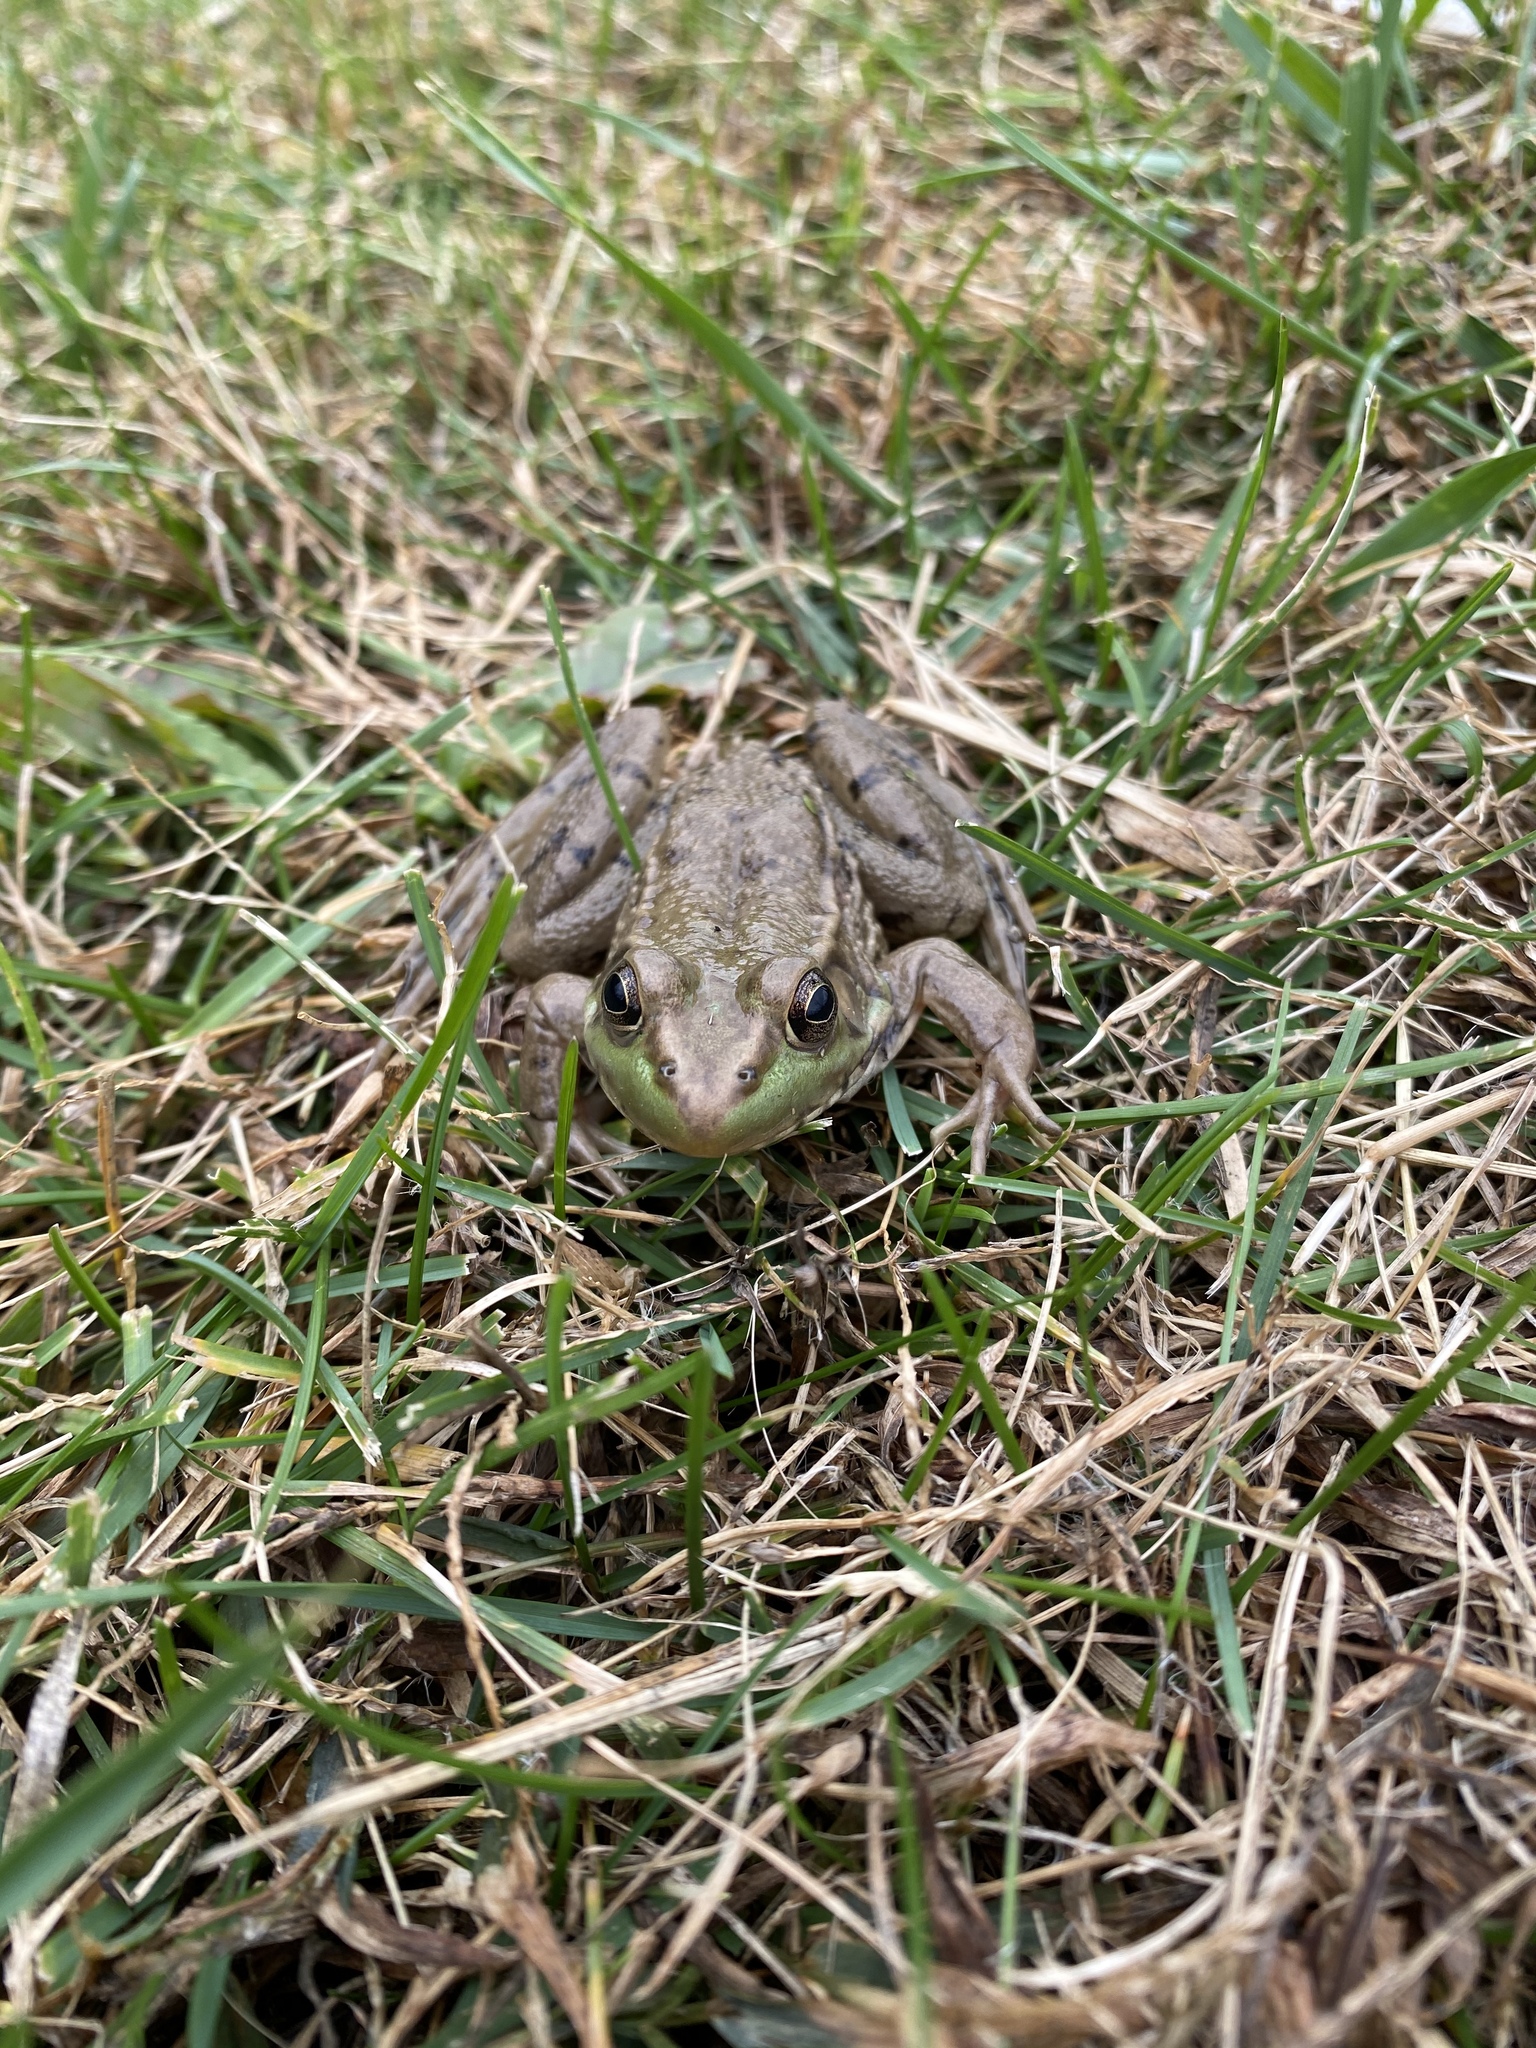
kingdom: Animalia
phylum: Chordata
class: Amphibia
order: Anura
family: Ranidae
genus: Lithobates
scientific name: Lithobates clamitans
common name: Green frog
